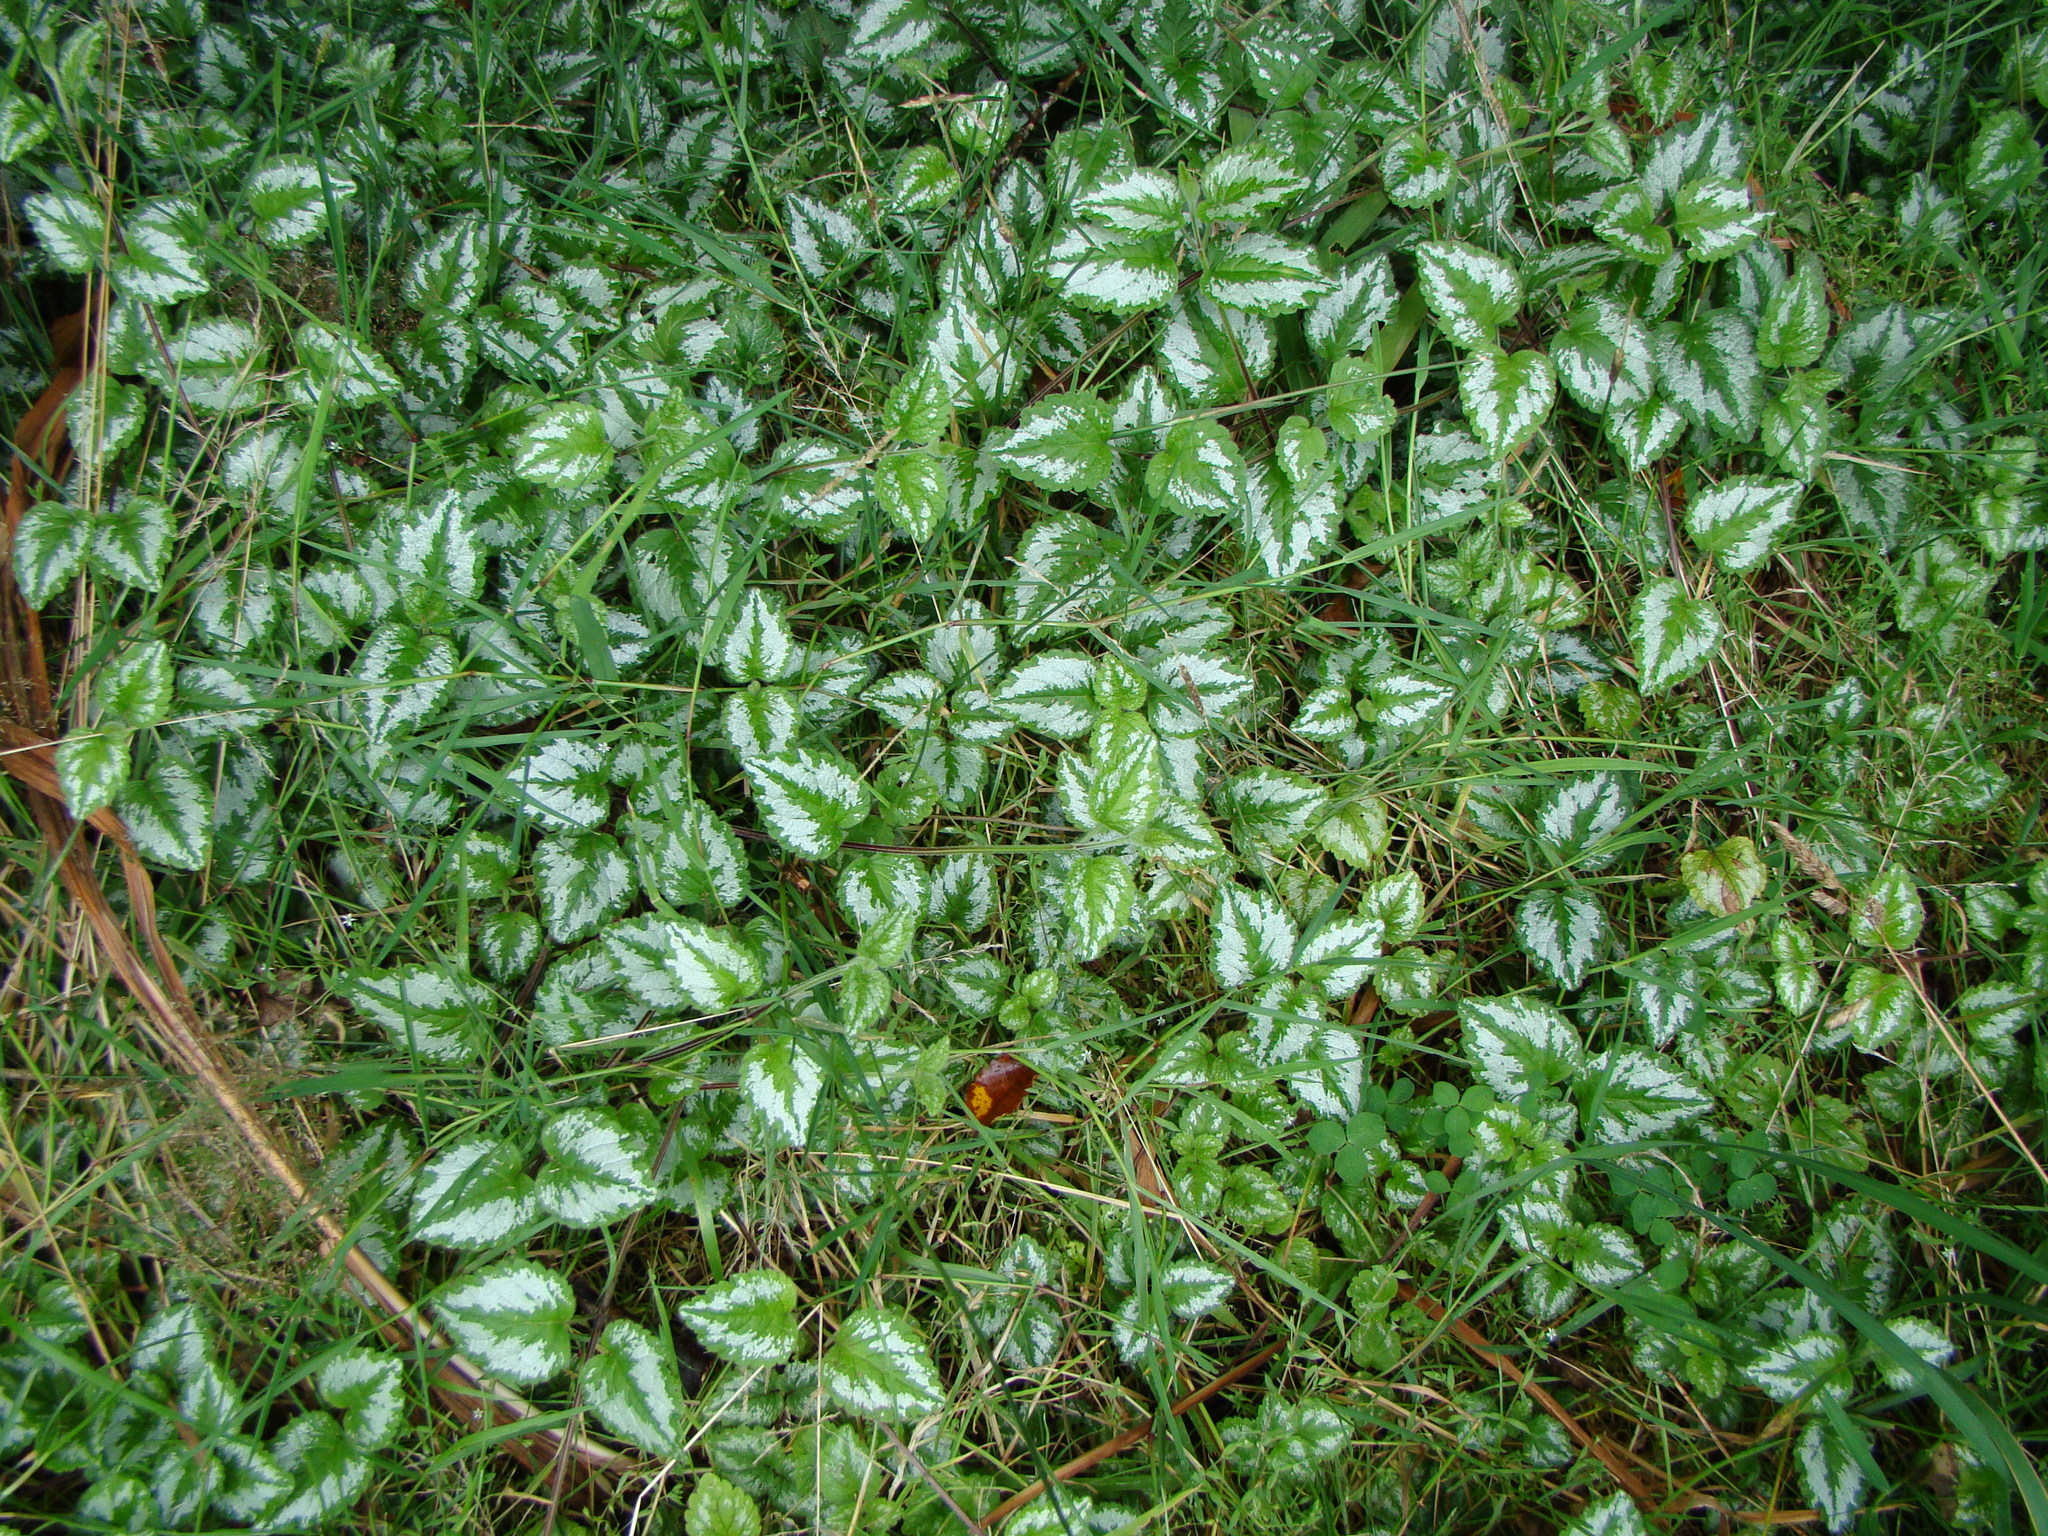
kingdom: Plantae
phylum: Tracheophyta
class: Magnoliopsida
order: Lamiales
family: Lamiaceae
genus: Lamium
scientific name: Lamium galeobdolon
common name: Yellow archangel
